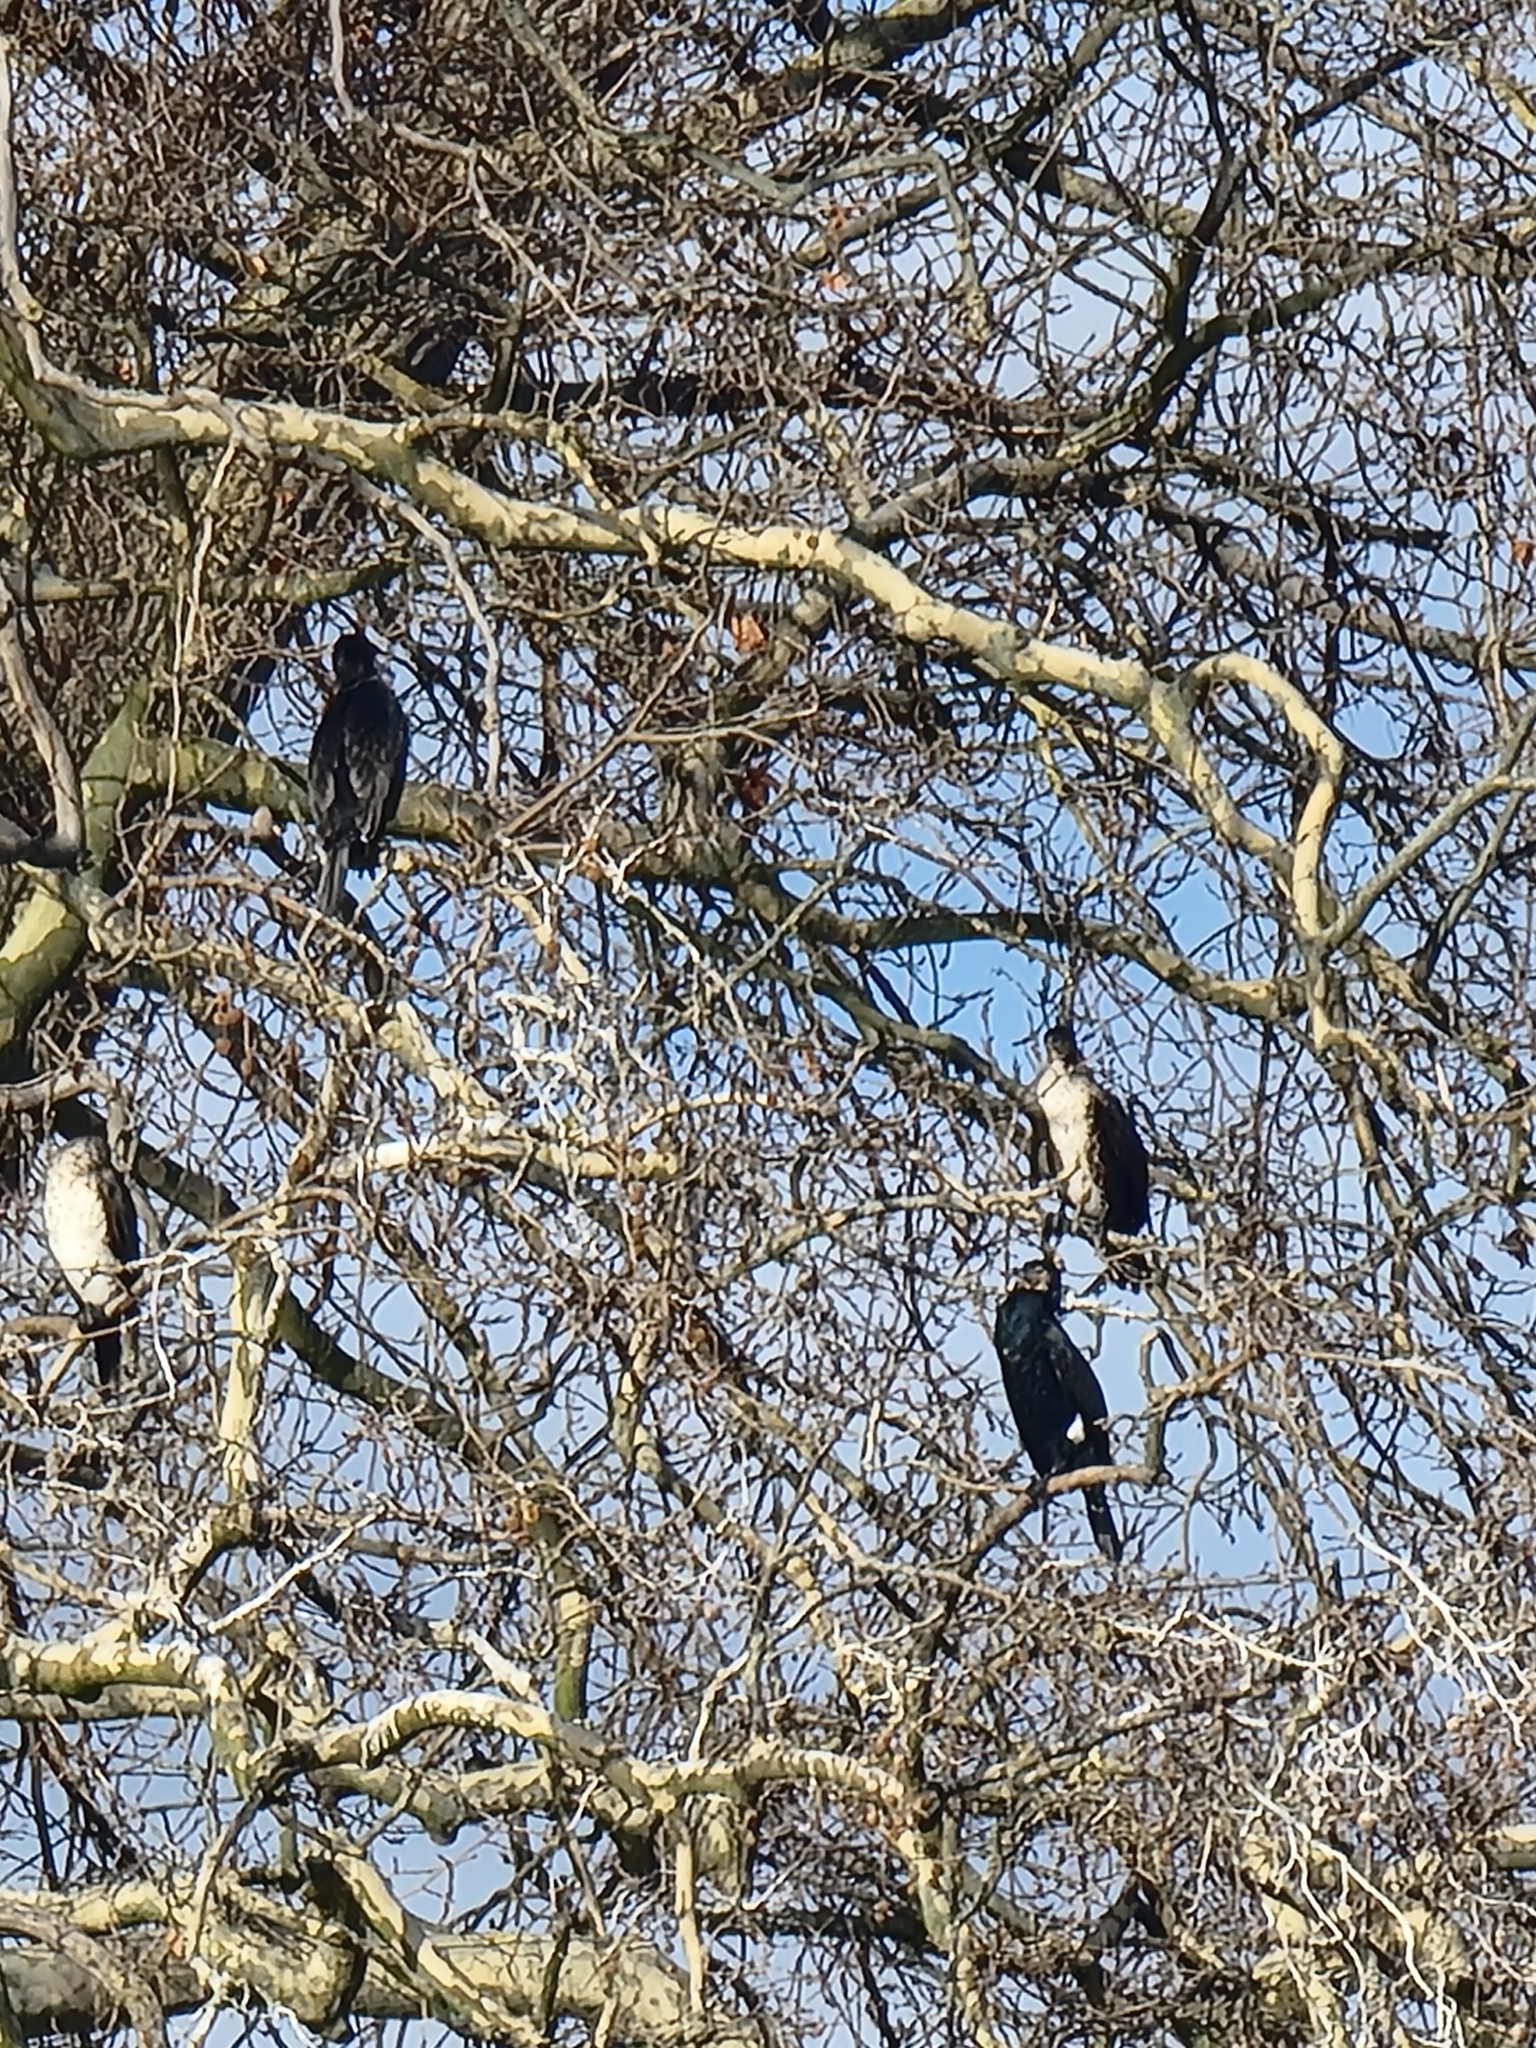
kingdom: Animalia
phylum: Chordata
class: Aves
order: Suliformes
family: Phalacrocoracidae
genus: Phalacrocorax
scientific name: Phalacrocorax carbo
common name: Great cormorant
